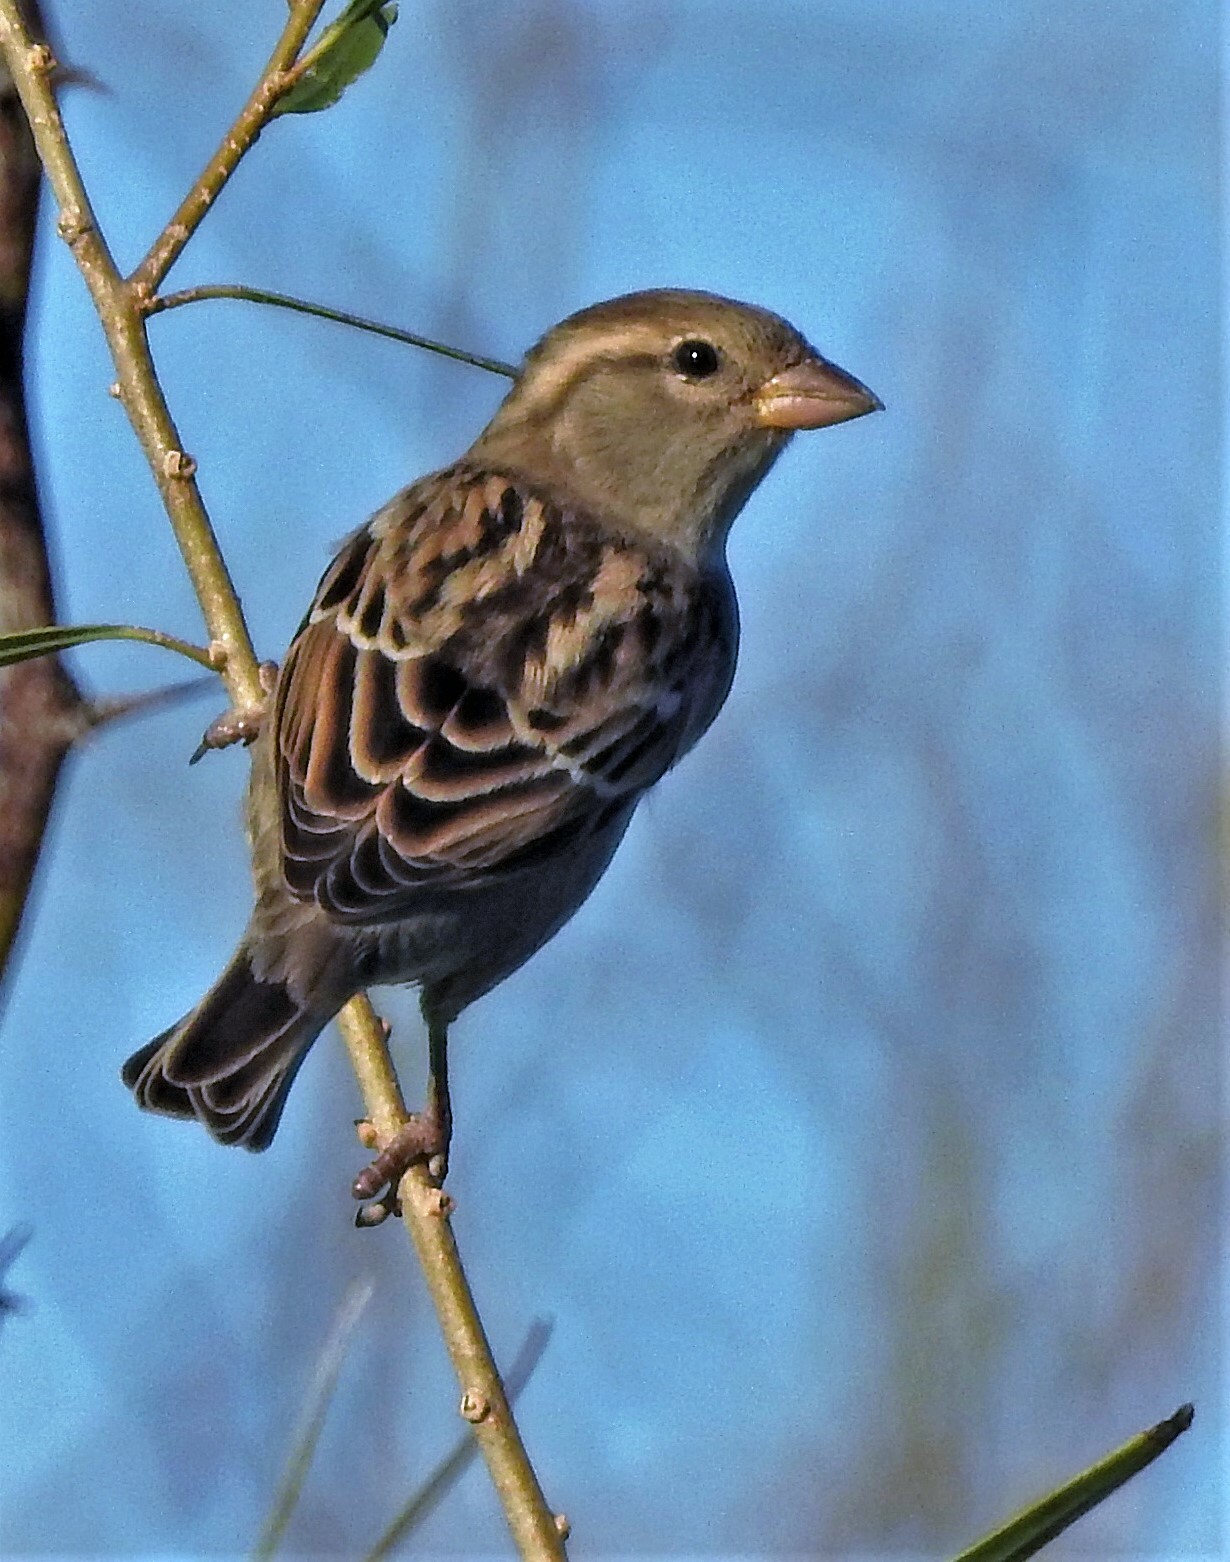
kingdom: Animalia
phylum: Chordata
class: Aves
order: Passeriformes
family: Passeridae
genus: Passer
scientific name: Passer domesticus
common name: House sparrow
